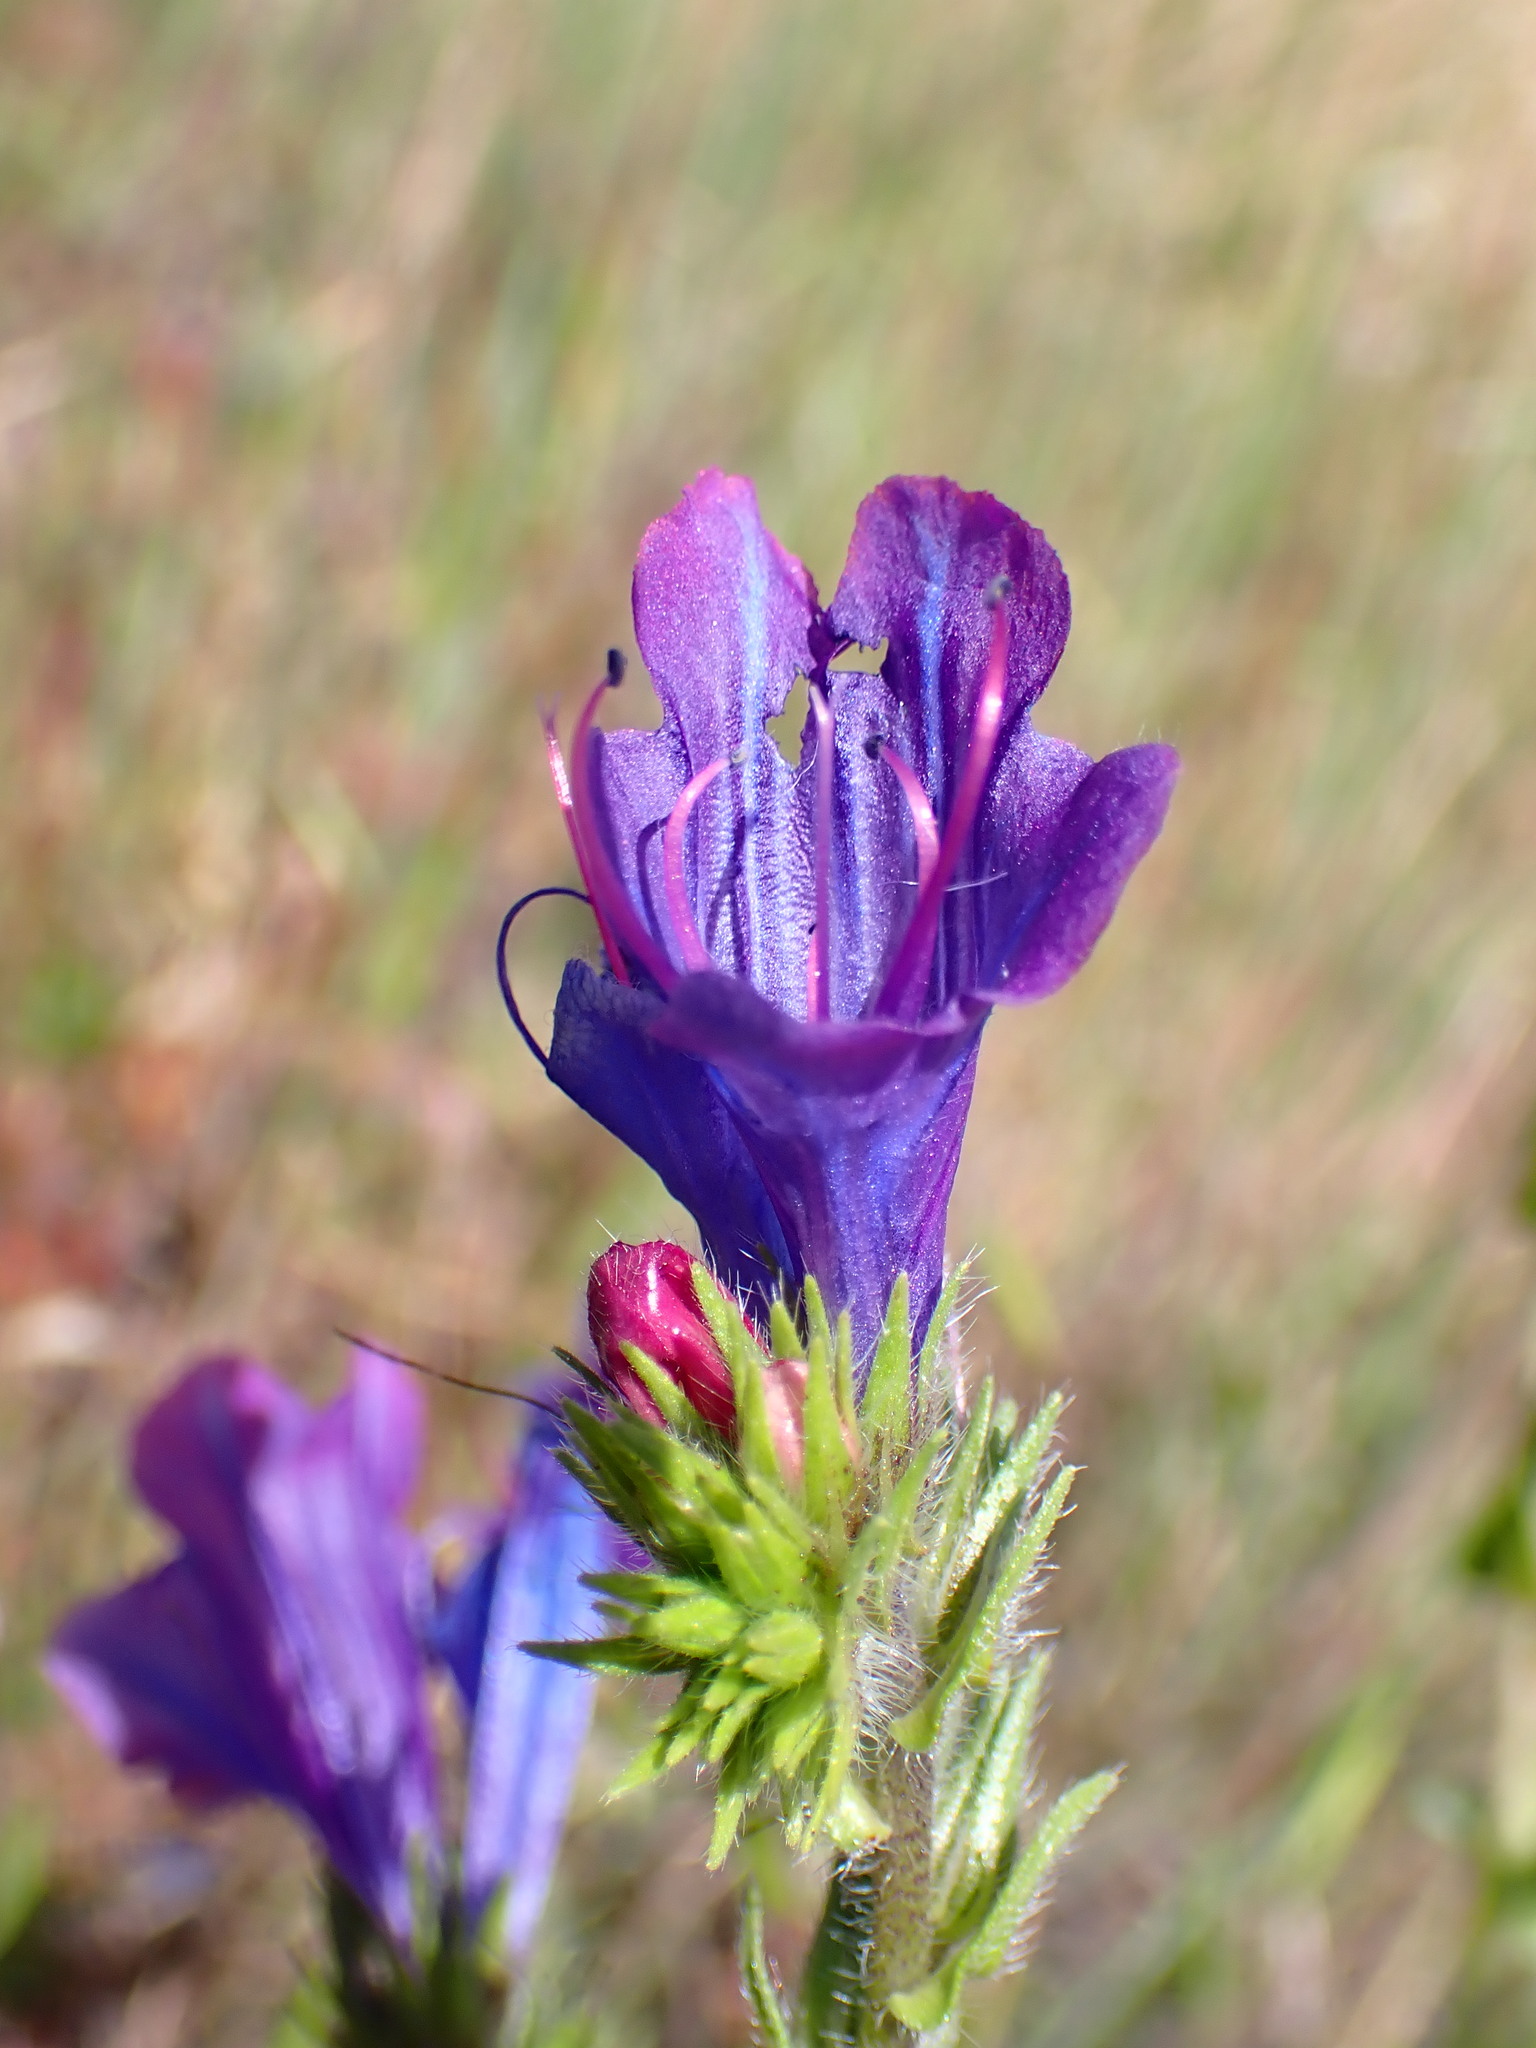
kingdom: Plantae
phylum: Tracheophyta
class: Magnoliopsida
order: Boraginales
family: Boraginaceae
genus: Echium
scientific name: Echium plantagineum
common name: Purple viper's-bugloss
